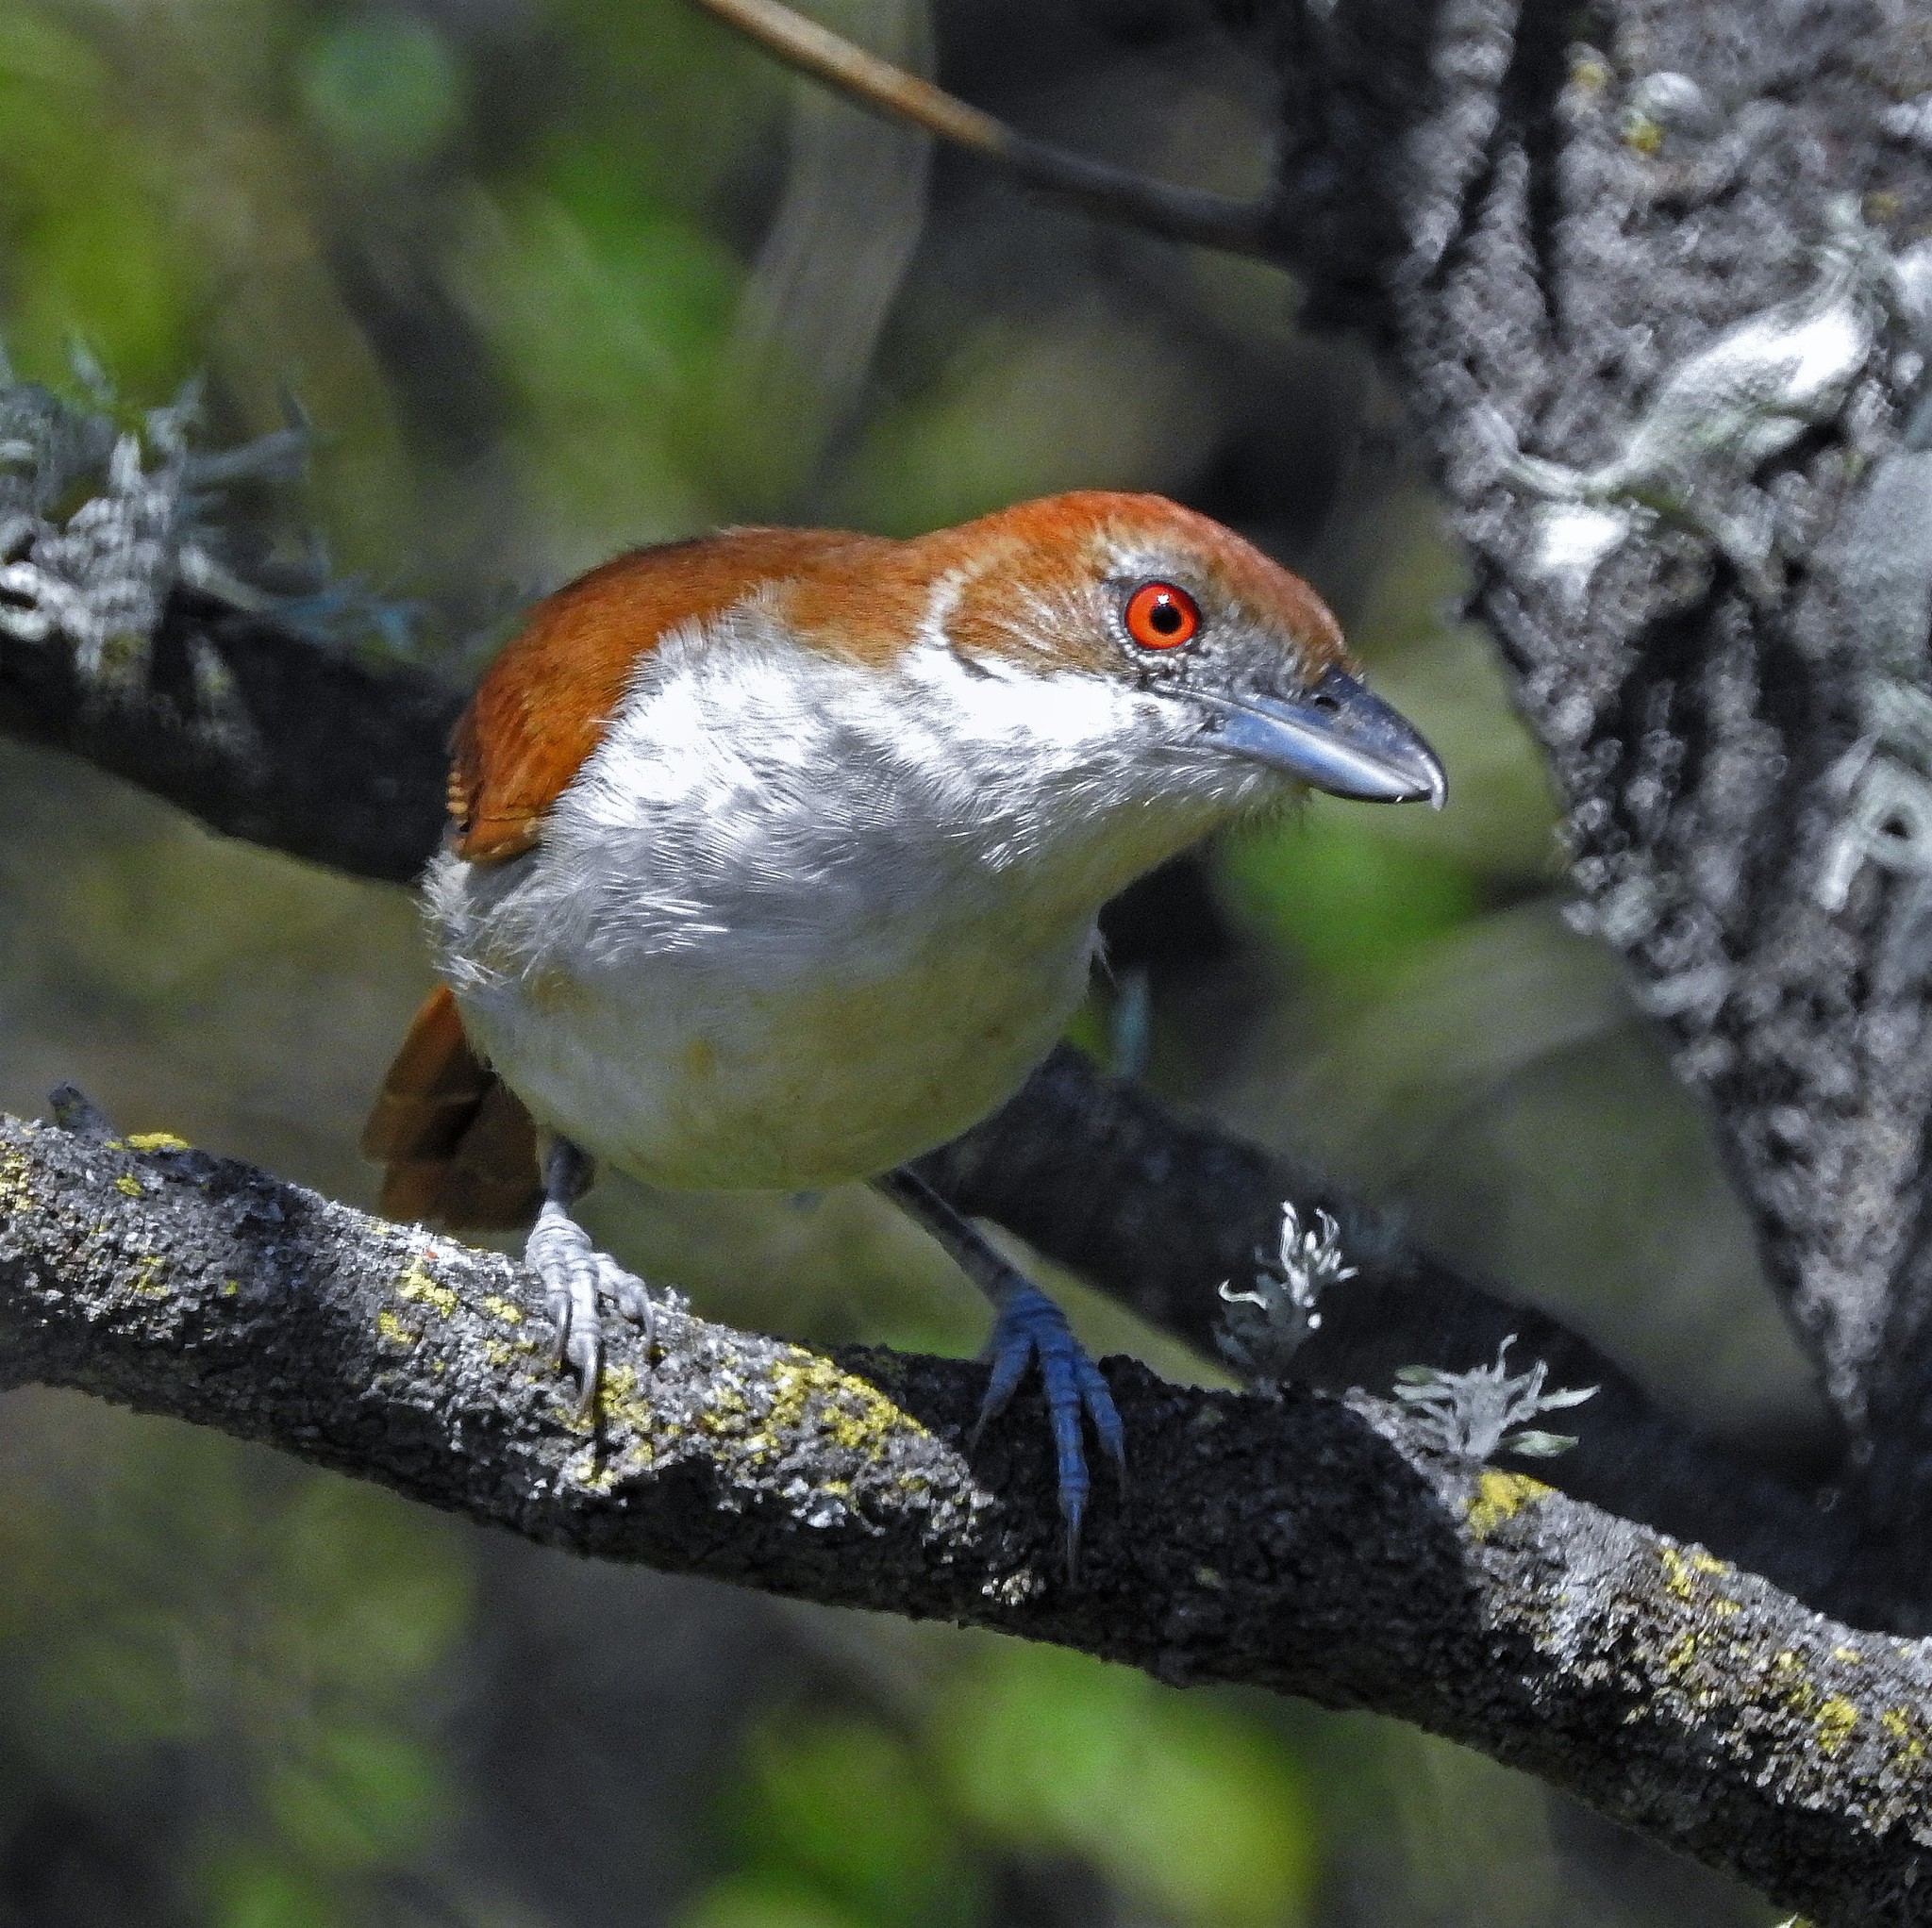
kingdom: Animalia
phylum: Chordata
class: Aves
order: Passeriformes
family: Thamnophilidae
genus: Taraba
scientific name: Taraba major
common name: Great antshrike
